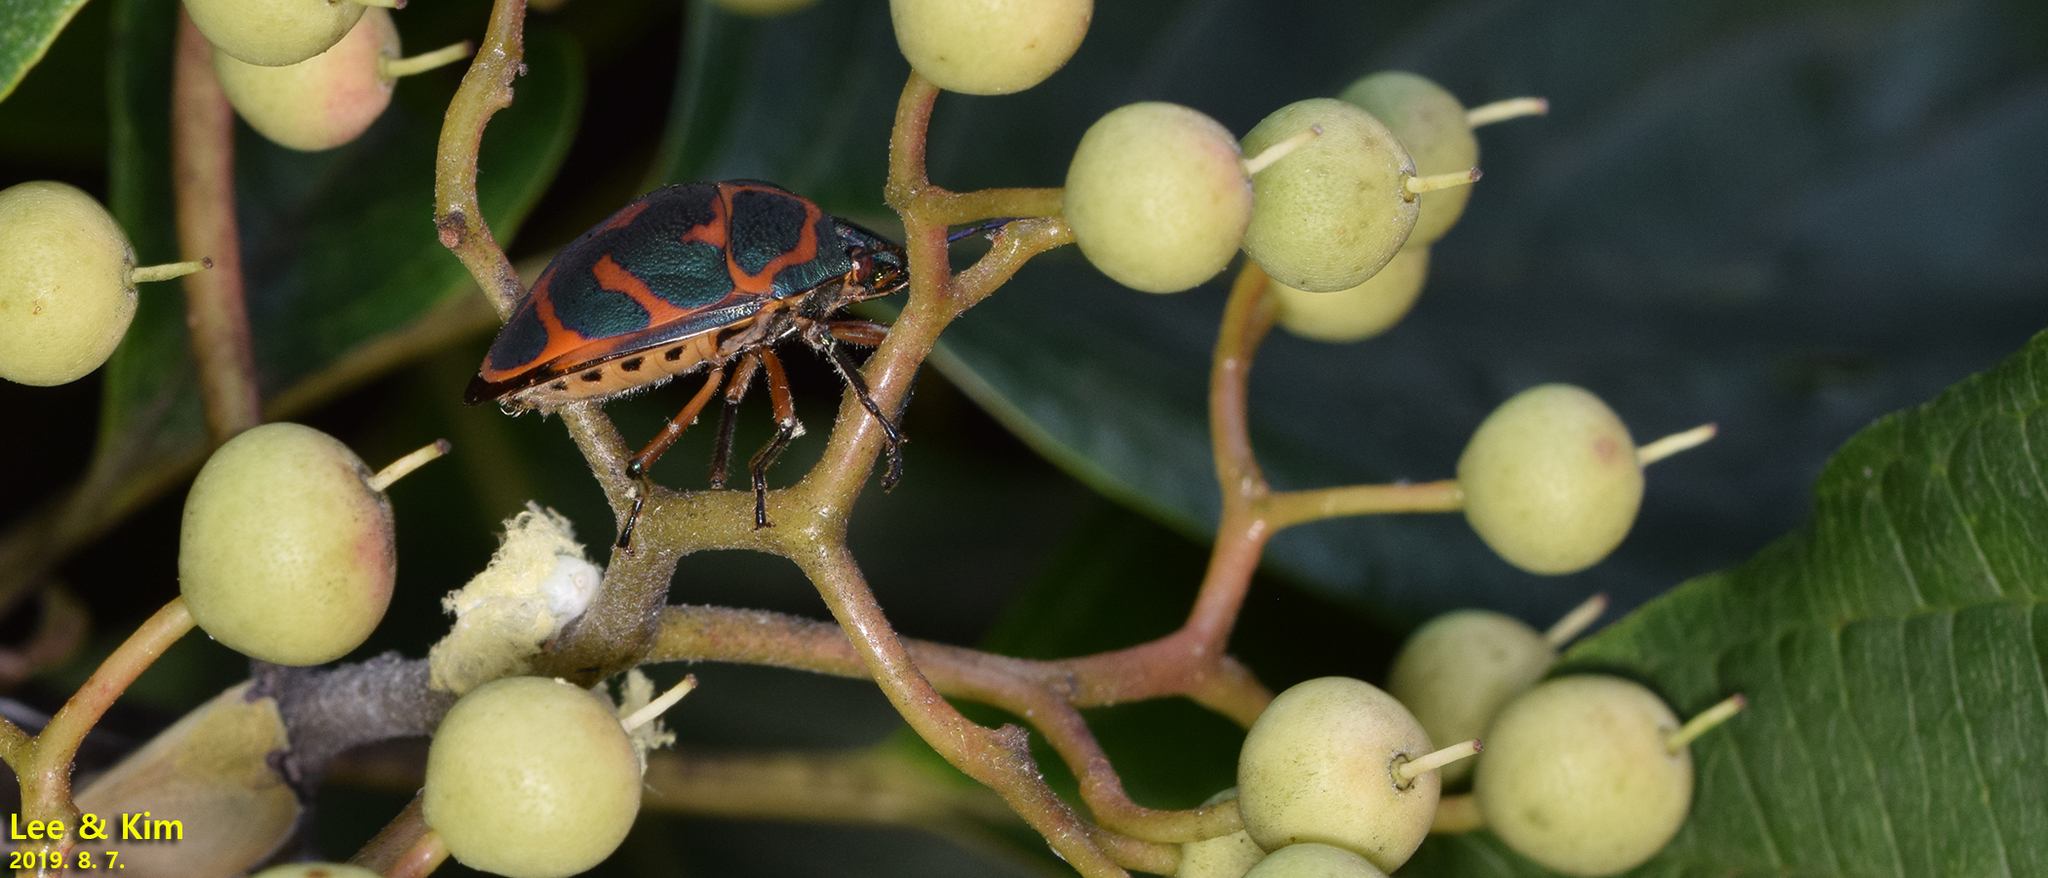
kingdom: Animalia
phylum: Arthropoda
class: Insecta
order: Hemiptera
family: Scutelleridae
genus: Poecilocoris
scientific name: Poecilocoris lewisi
